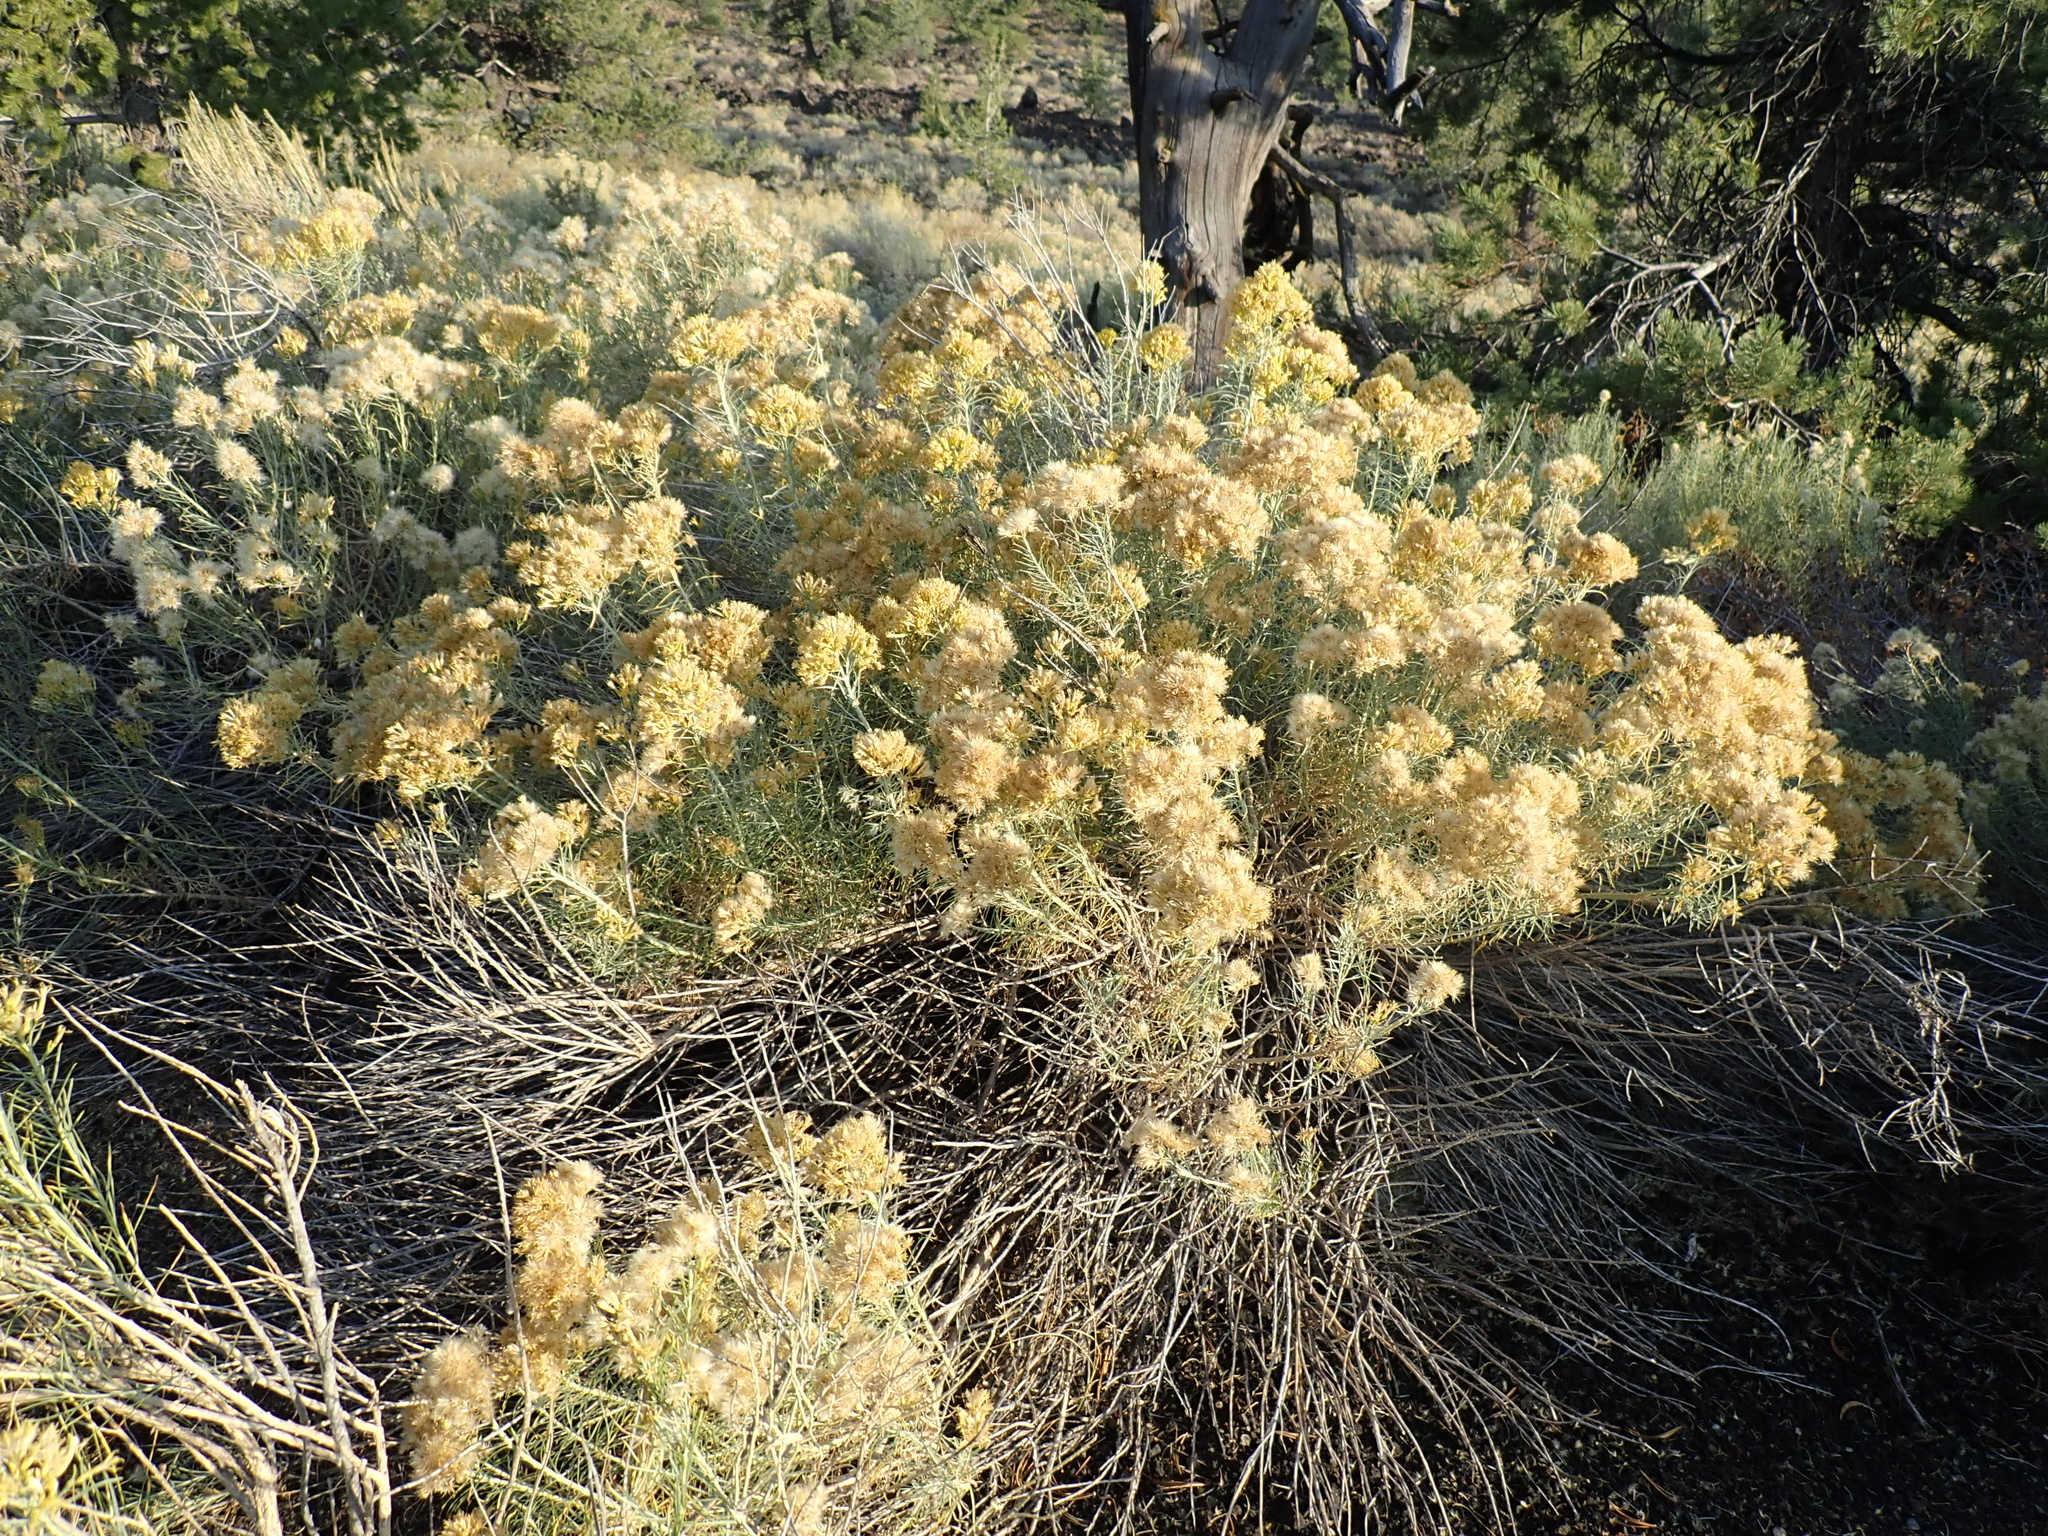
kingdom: Plantae
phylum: Tracheophyta
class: Magnoliopsida
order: Asterales
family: Asteraceae
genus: Ericameria
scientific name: Ericameria nauseosa
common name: Rubber rabbitbrush
